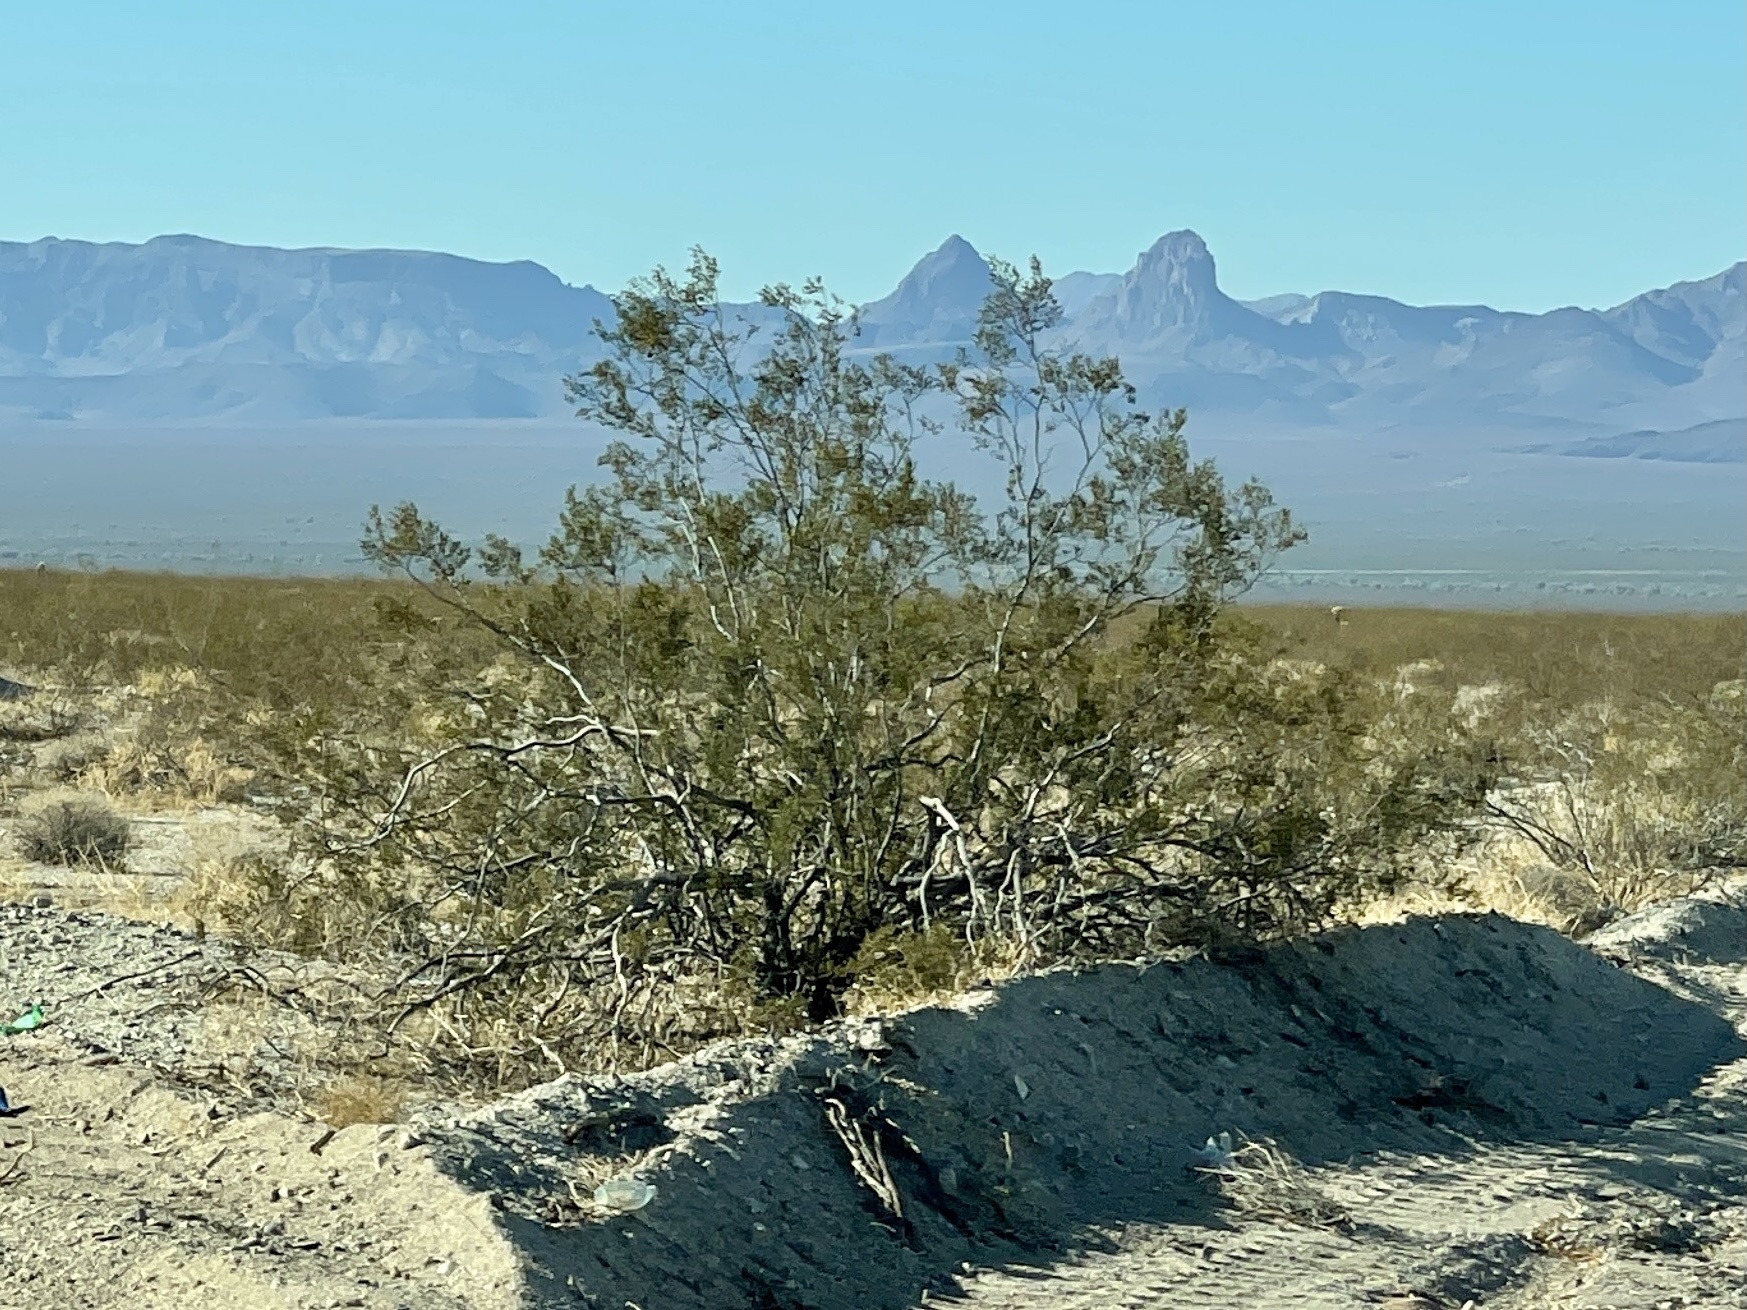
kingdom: Plantae
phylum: Tracheophyta
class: Magnoliopsida
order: Zygophyllales
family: Zygophyllaceae
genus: Larrea
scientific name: Larrea tridentata
